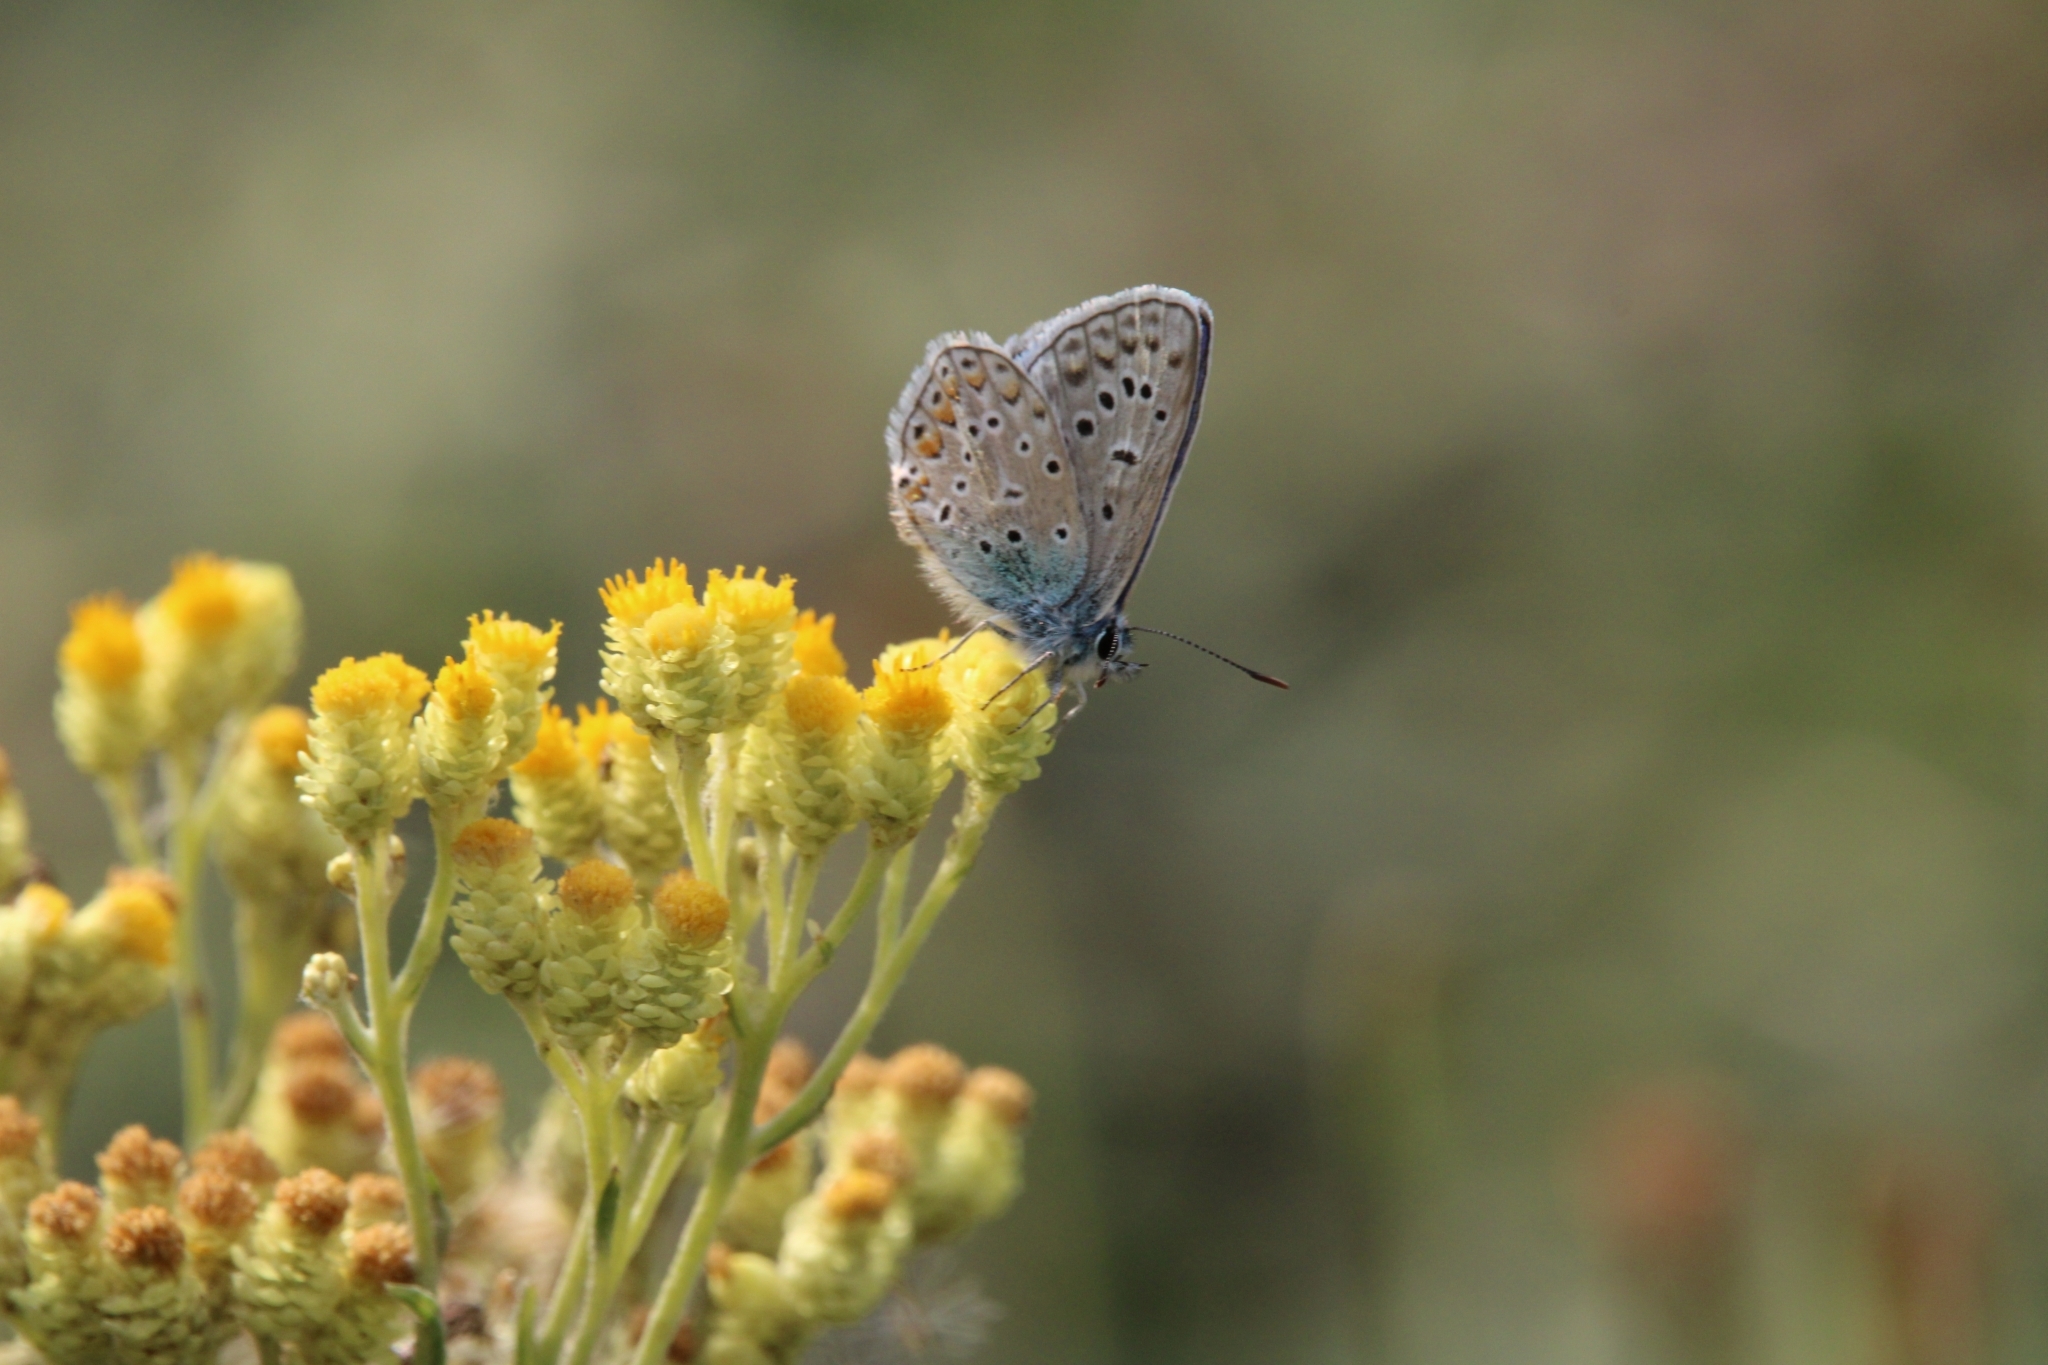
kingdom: Plantae
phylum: Tracheophyta
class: Magnoliopsida
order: Asterales
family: Asteraceae
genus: Helichrysum
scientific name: Helichrysum arenarium
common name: Strawflower
